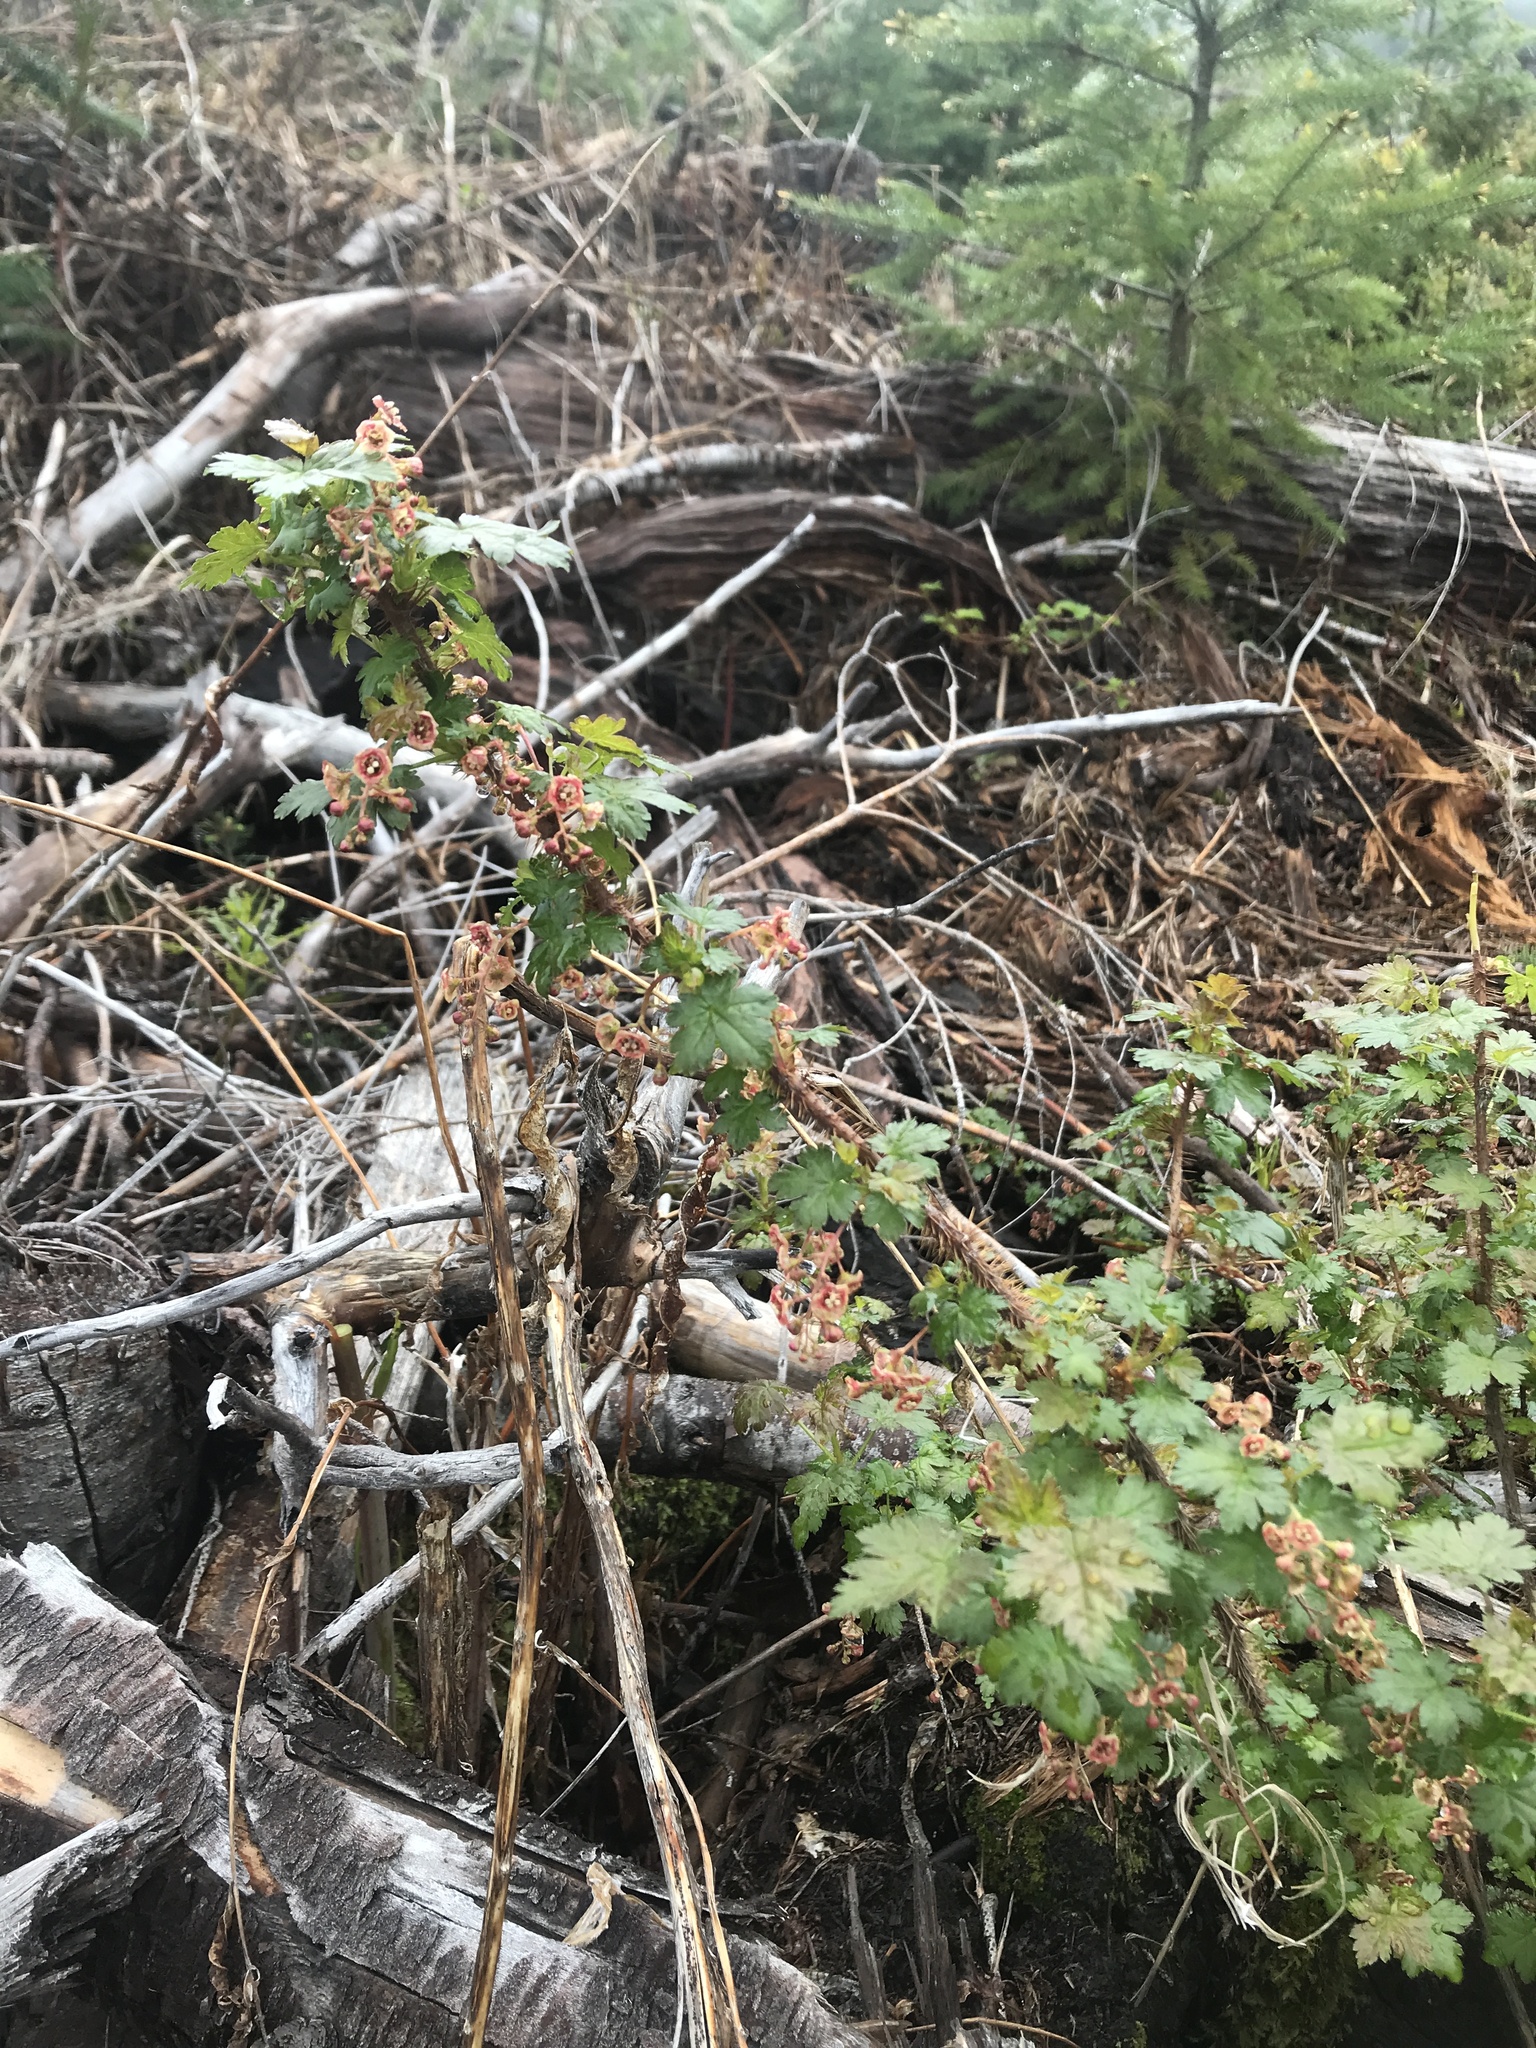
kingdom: Plantae
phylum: Tracheophyta
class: Magnoliopsida
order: Saxifragales
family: Grossulariaceae
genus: Ribes
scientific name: Ribes lacustre
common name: Black gooseberry
